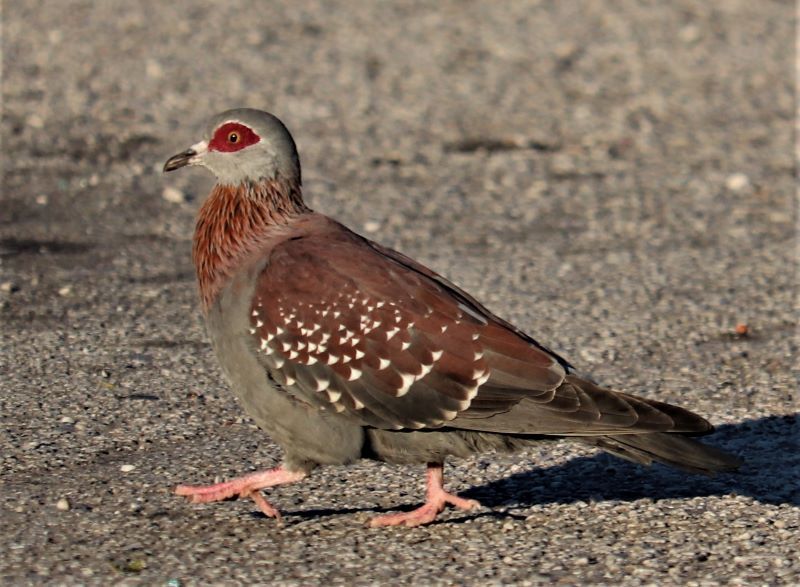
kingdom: Animalia
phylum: Chordata
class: Aves
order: Columbiformes
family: Columbidae
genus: Columba
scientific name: Columba guinea
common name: Speckled pigeon
